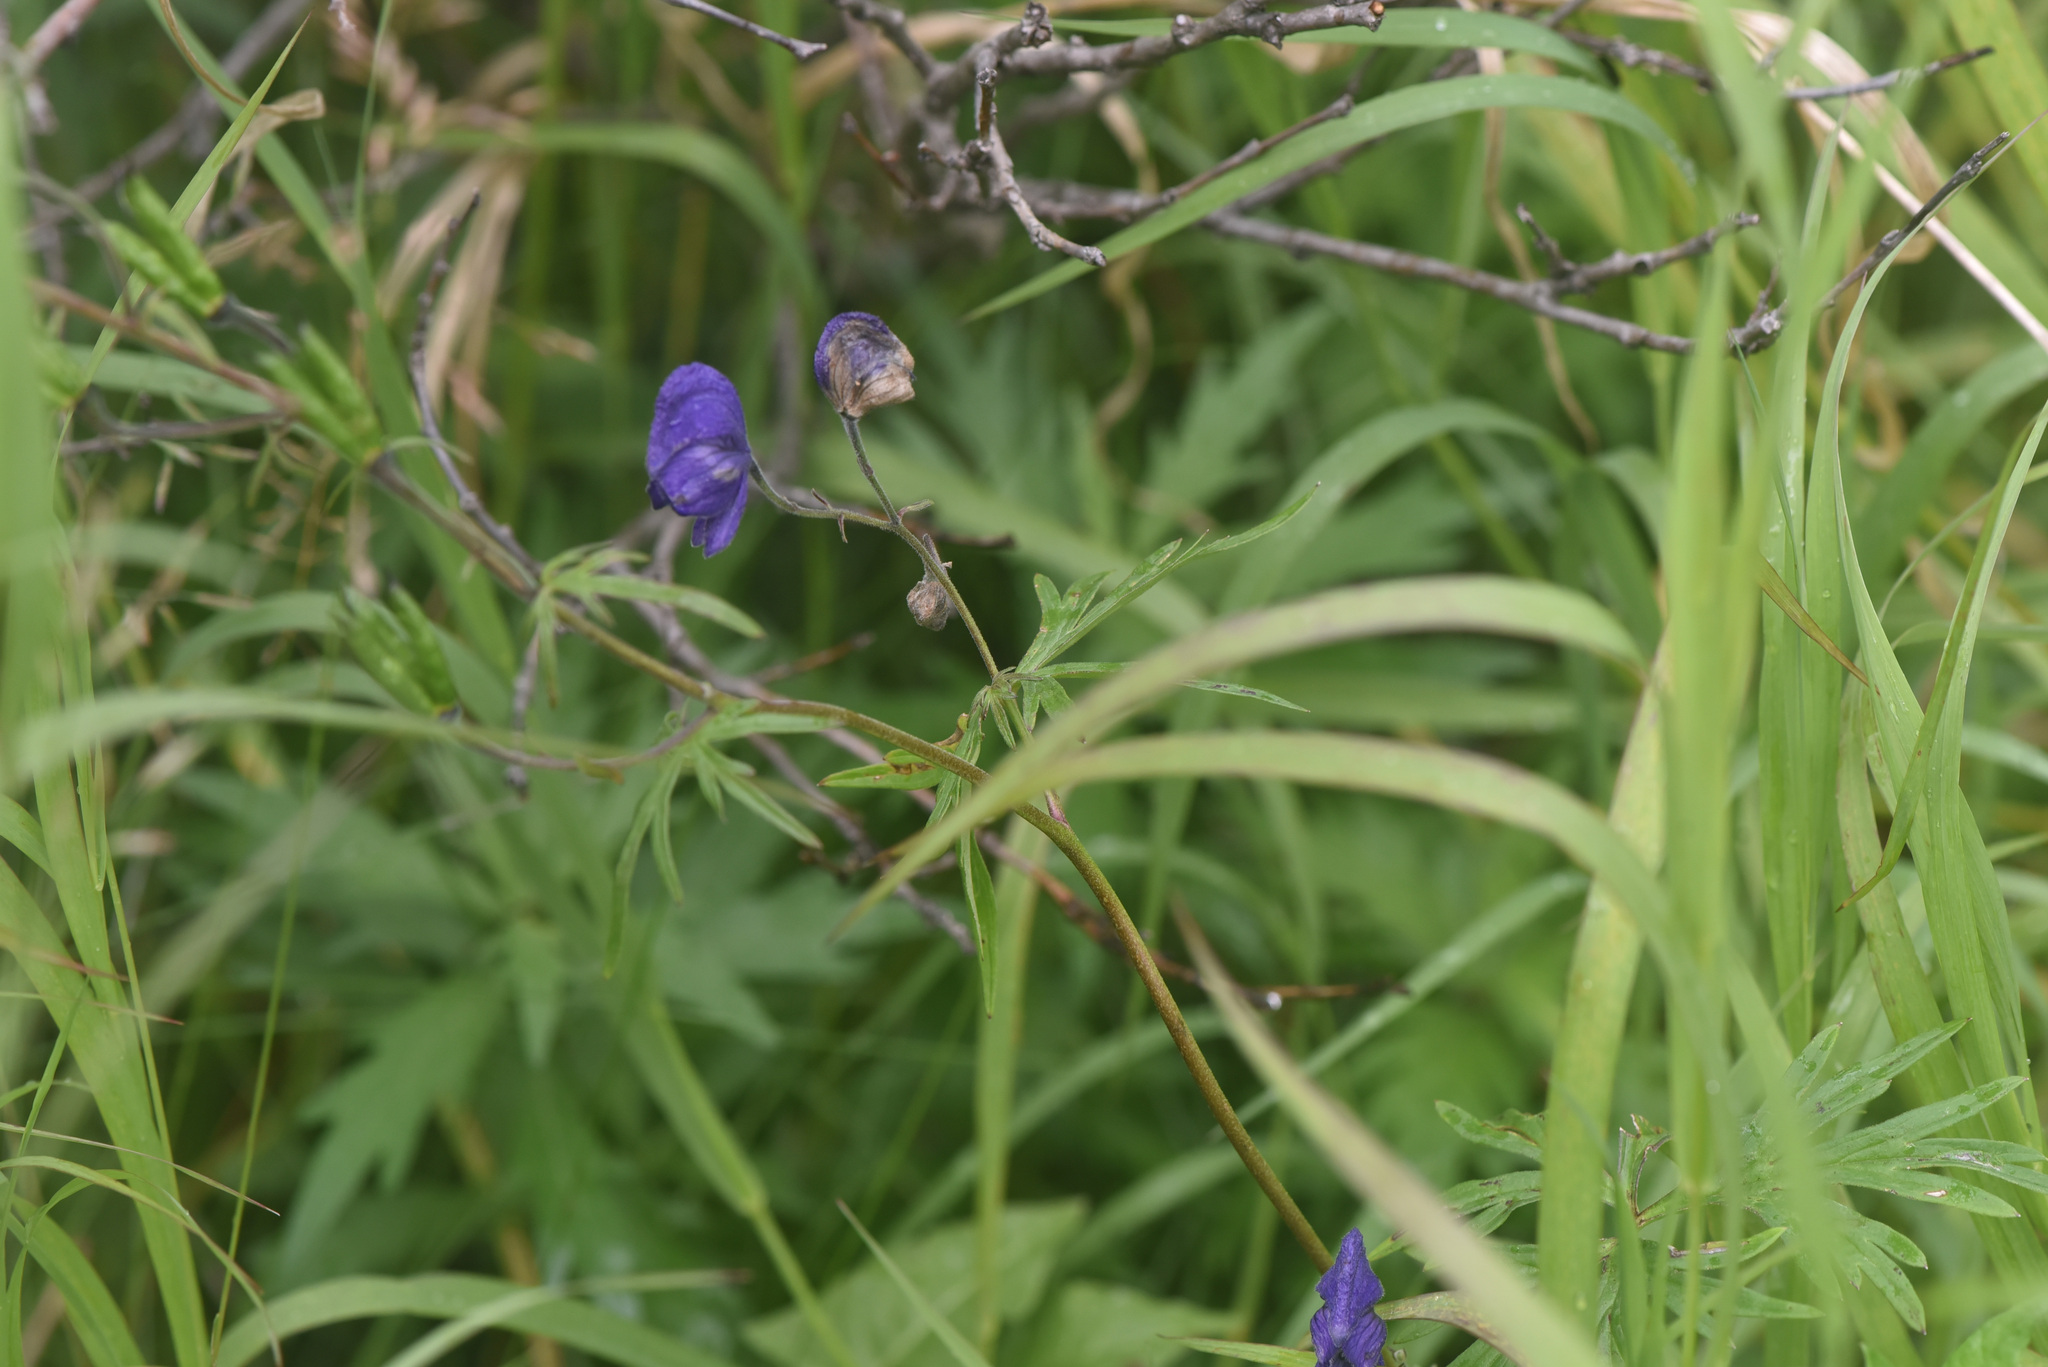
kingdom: Plantae
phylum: Tracheophyta
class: Magnoliopsida
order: Ranunculales
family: Ranunculaceae
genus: Aconitum
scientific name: Aconitum delphiniifolium
